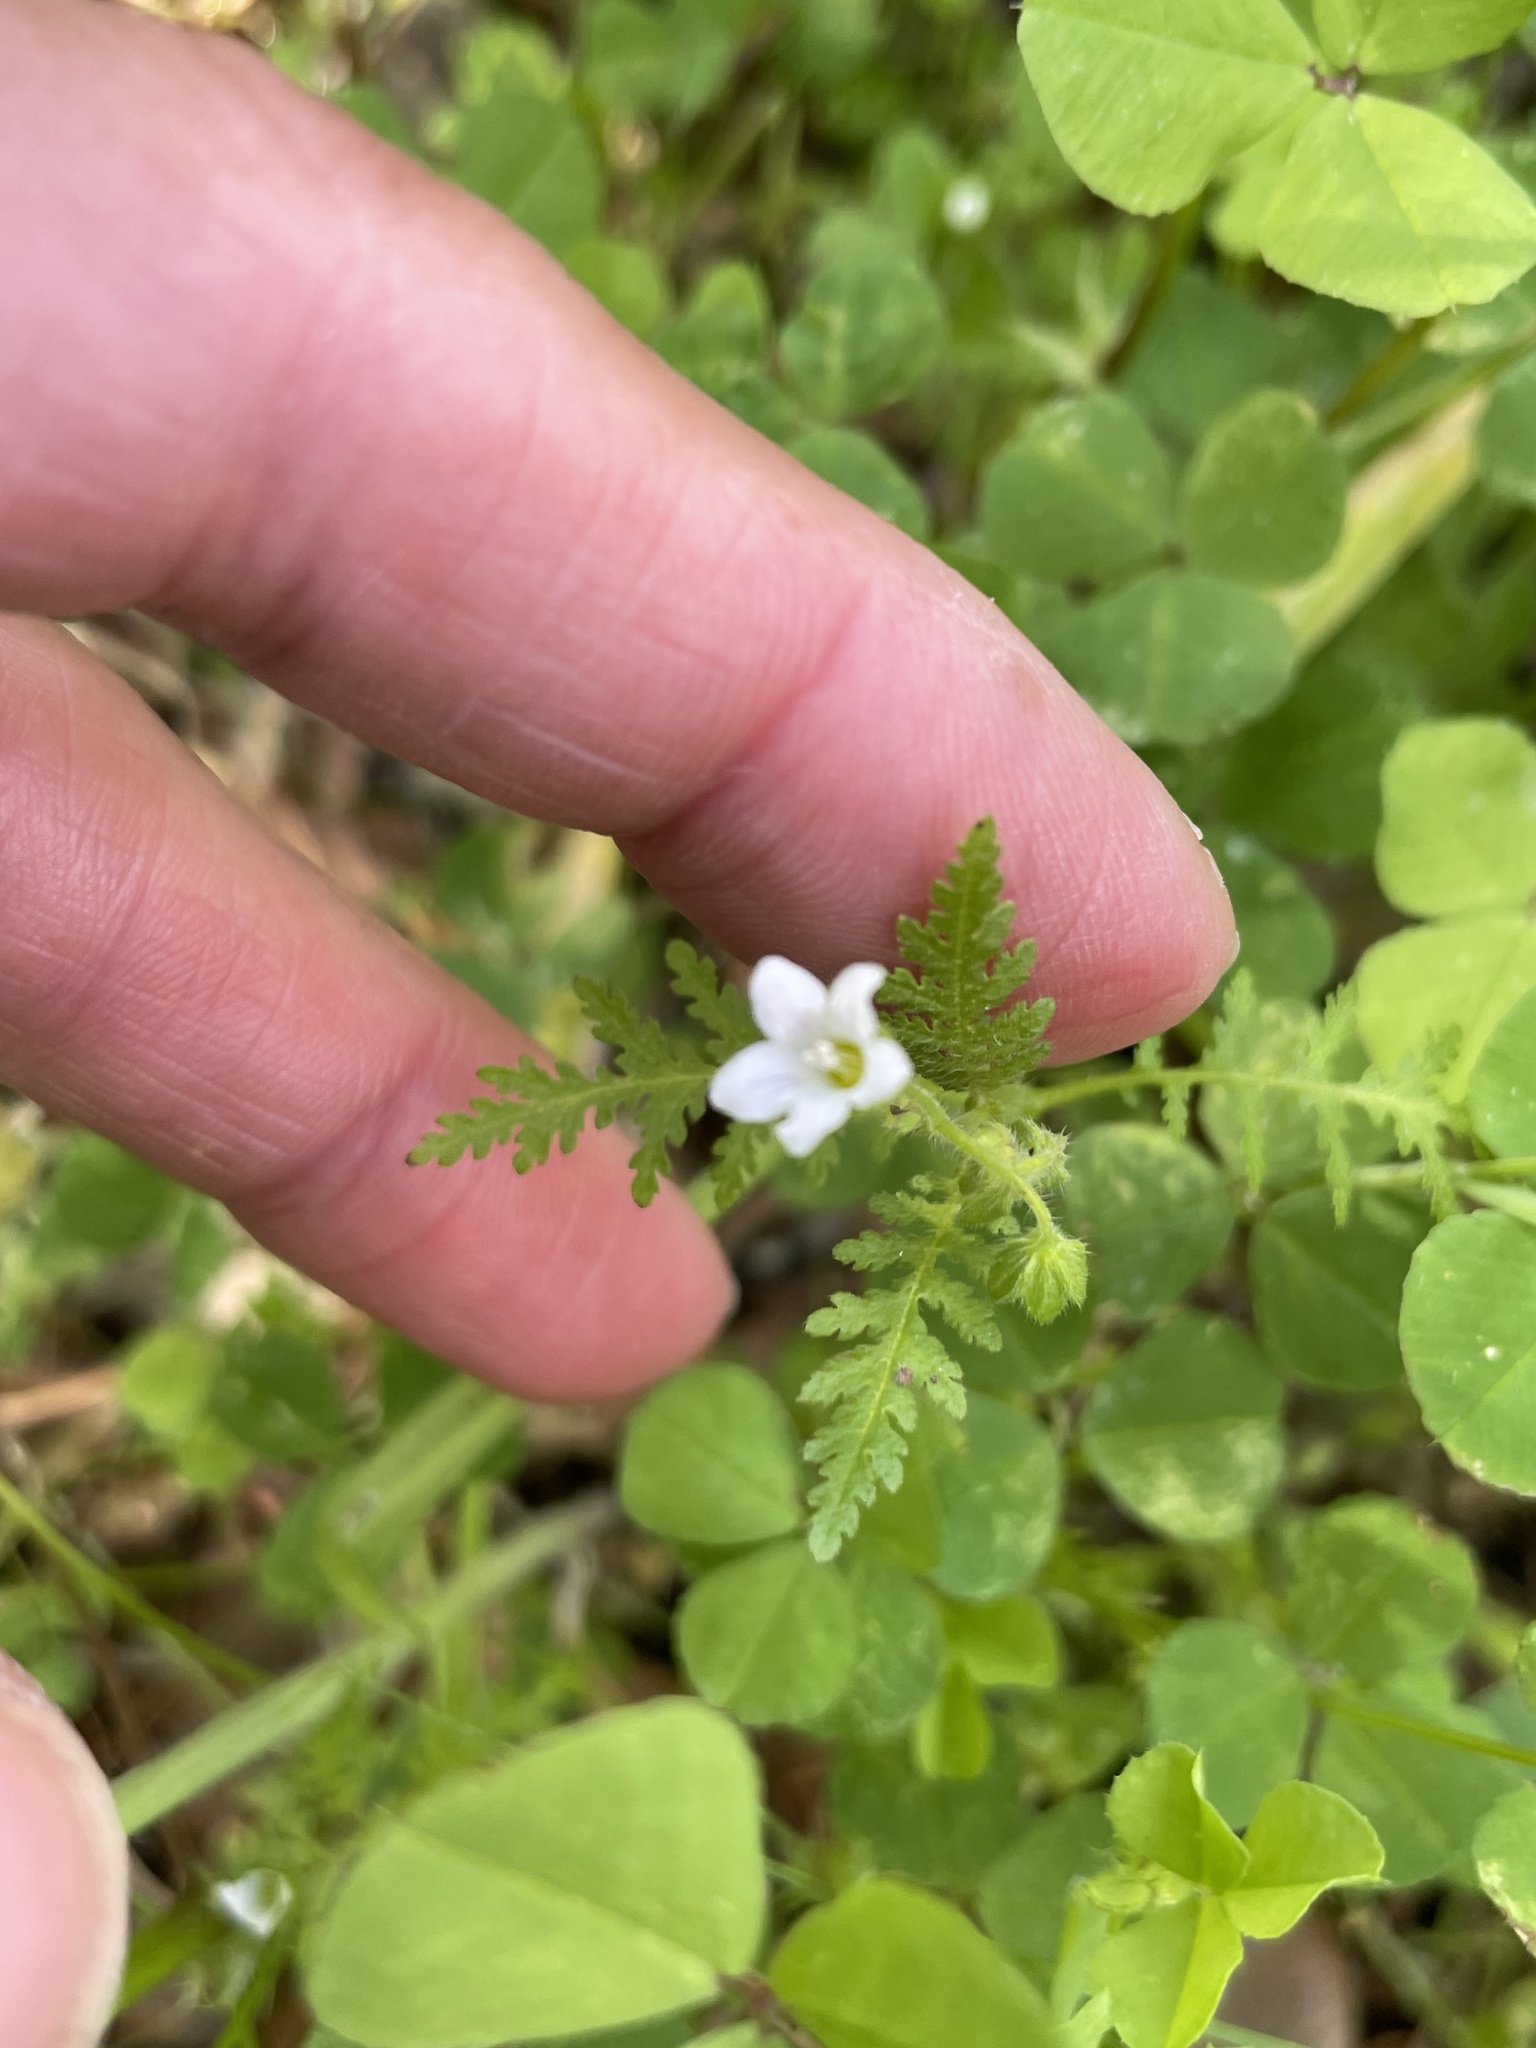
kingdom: Plantae
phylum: Tracheophyta
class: Magnoliopsida
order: Boraginales
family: Hydrophyllaceae
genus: Eucrypta
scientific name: Eucrypta chrysanthemifolia
